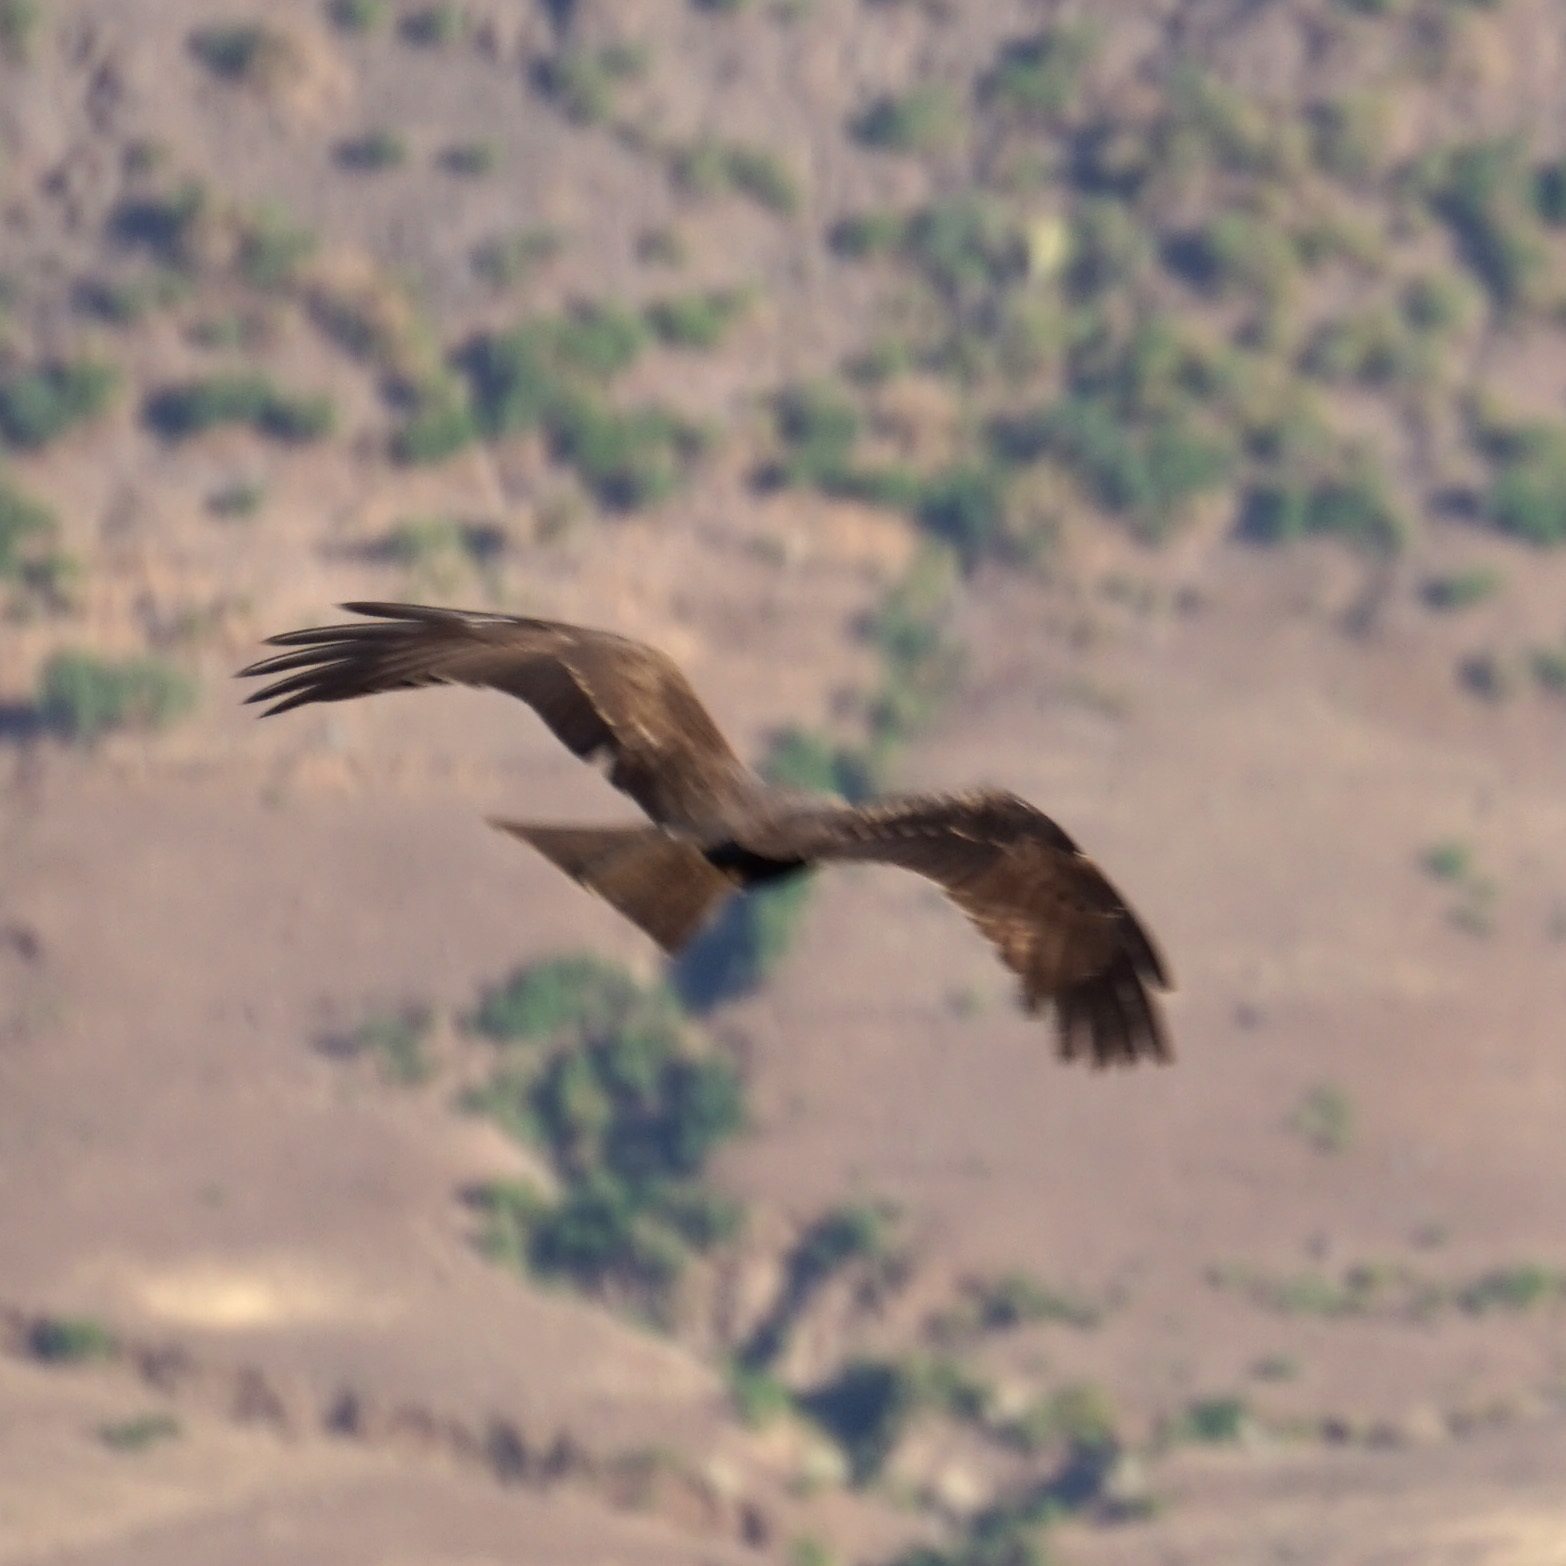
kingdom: Animalia
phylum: Chordata
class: Aves
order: Accipitriformes
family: Accipitridae
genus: Milvus
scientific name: Milvus migrans
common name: Black kite
